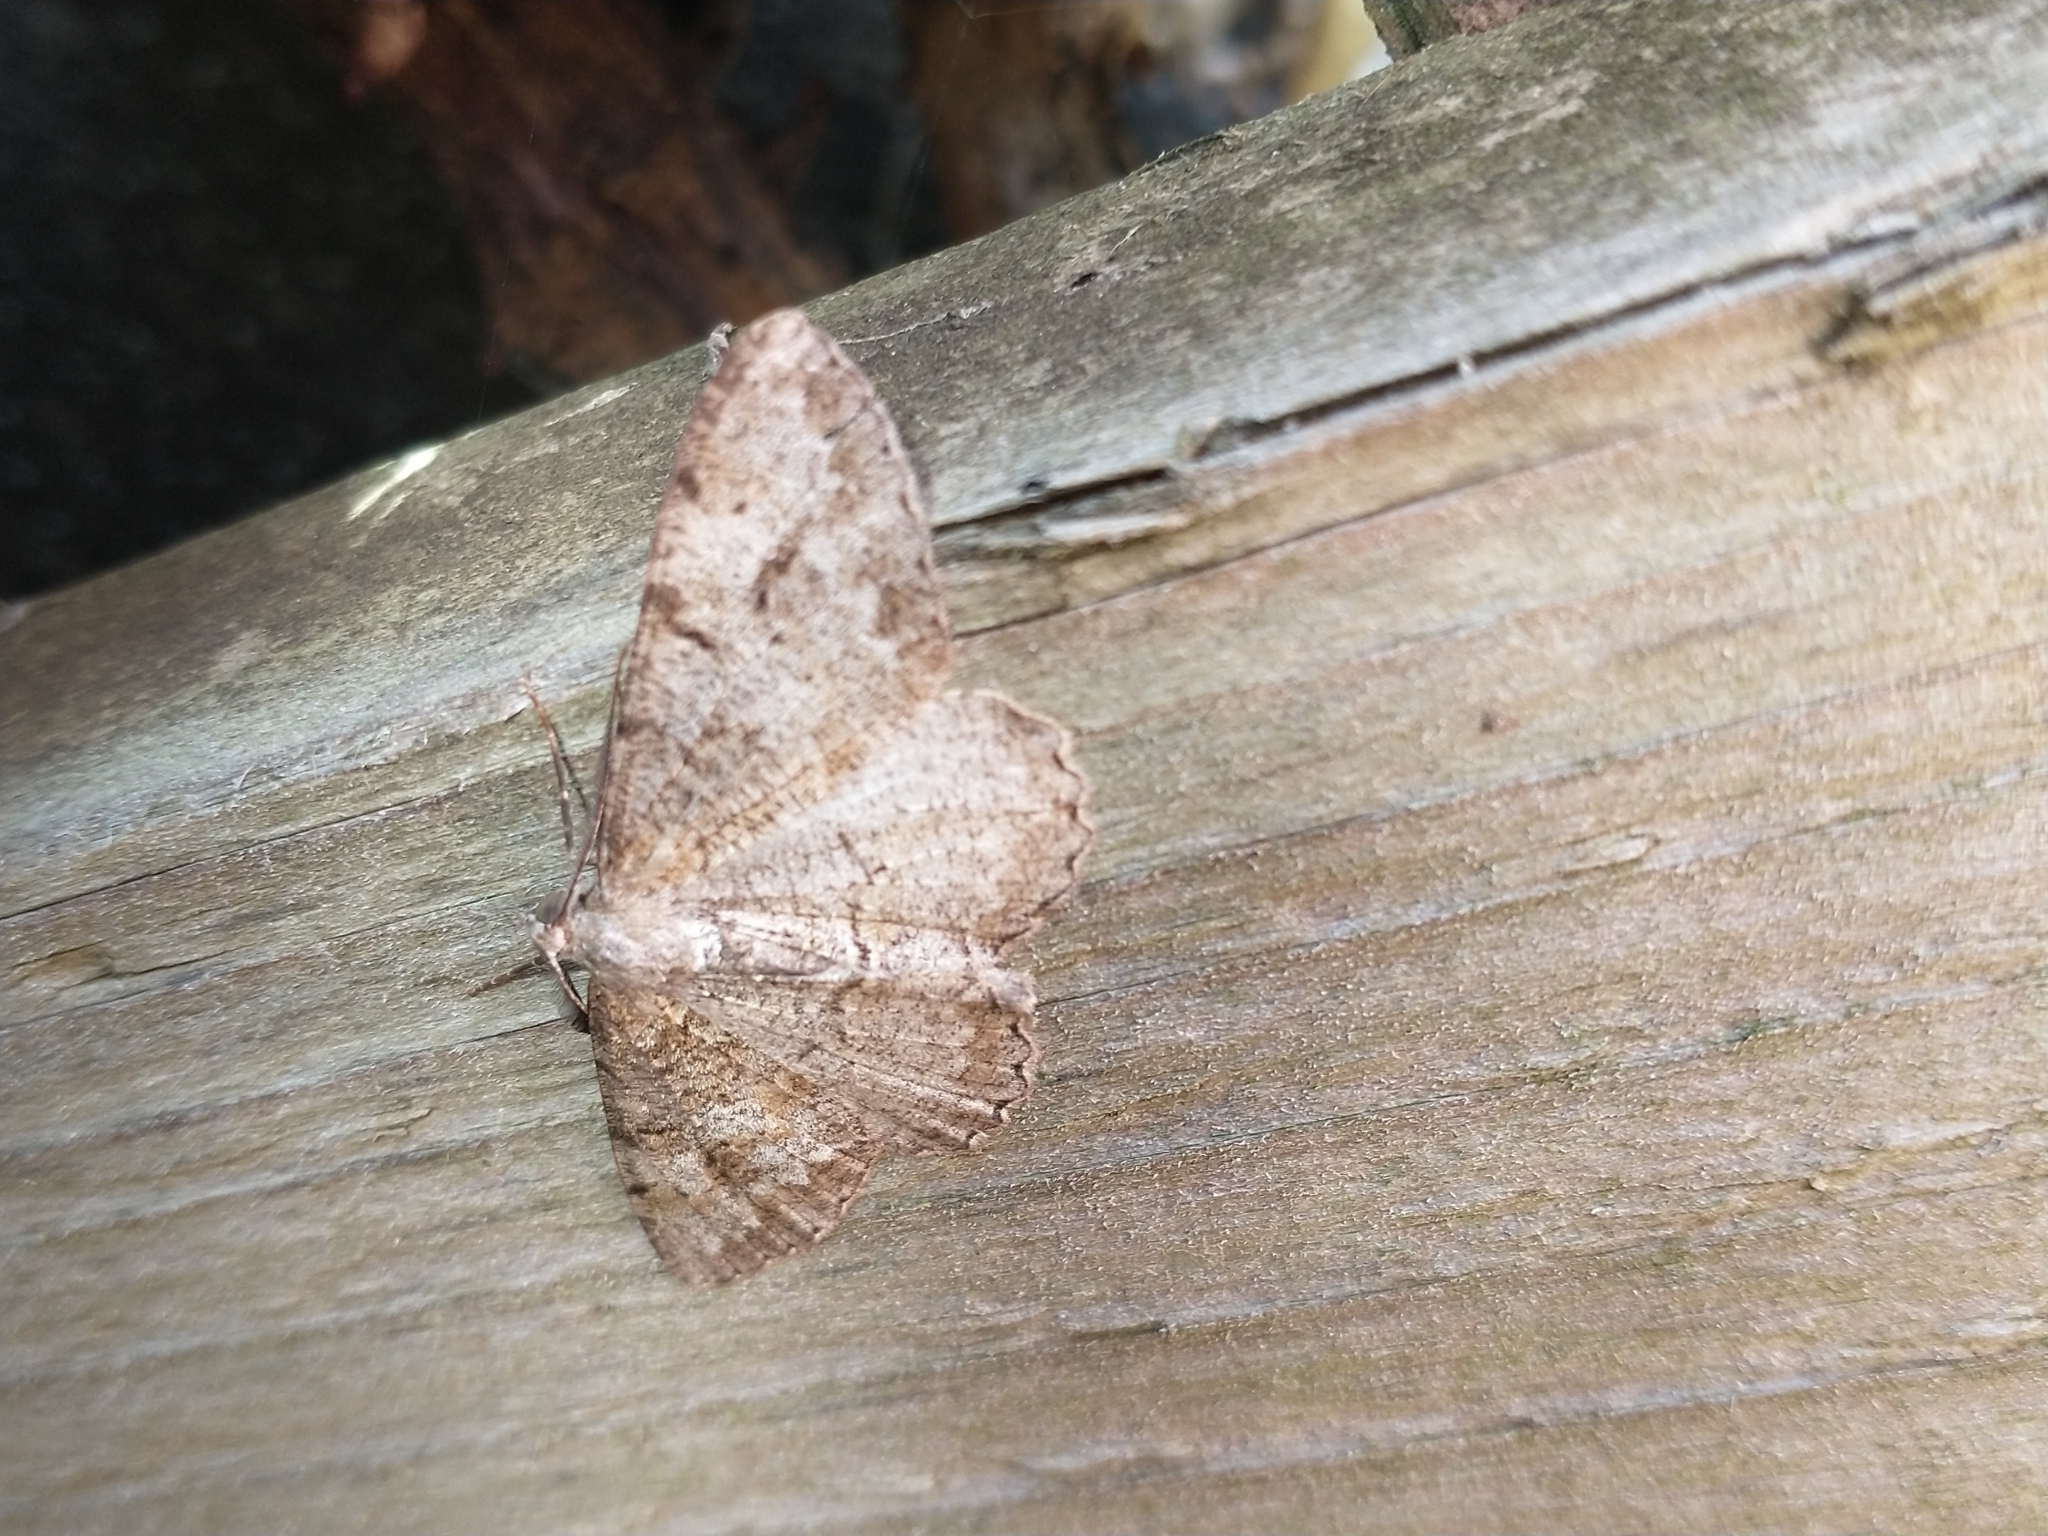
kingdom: Animalia
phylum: Arthropoda
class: Insecta
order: Lepidoptera
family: Geometridae
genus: Alcis
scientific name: Alcis repandata
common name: Mottled beauty
